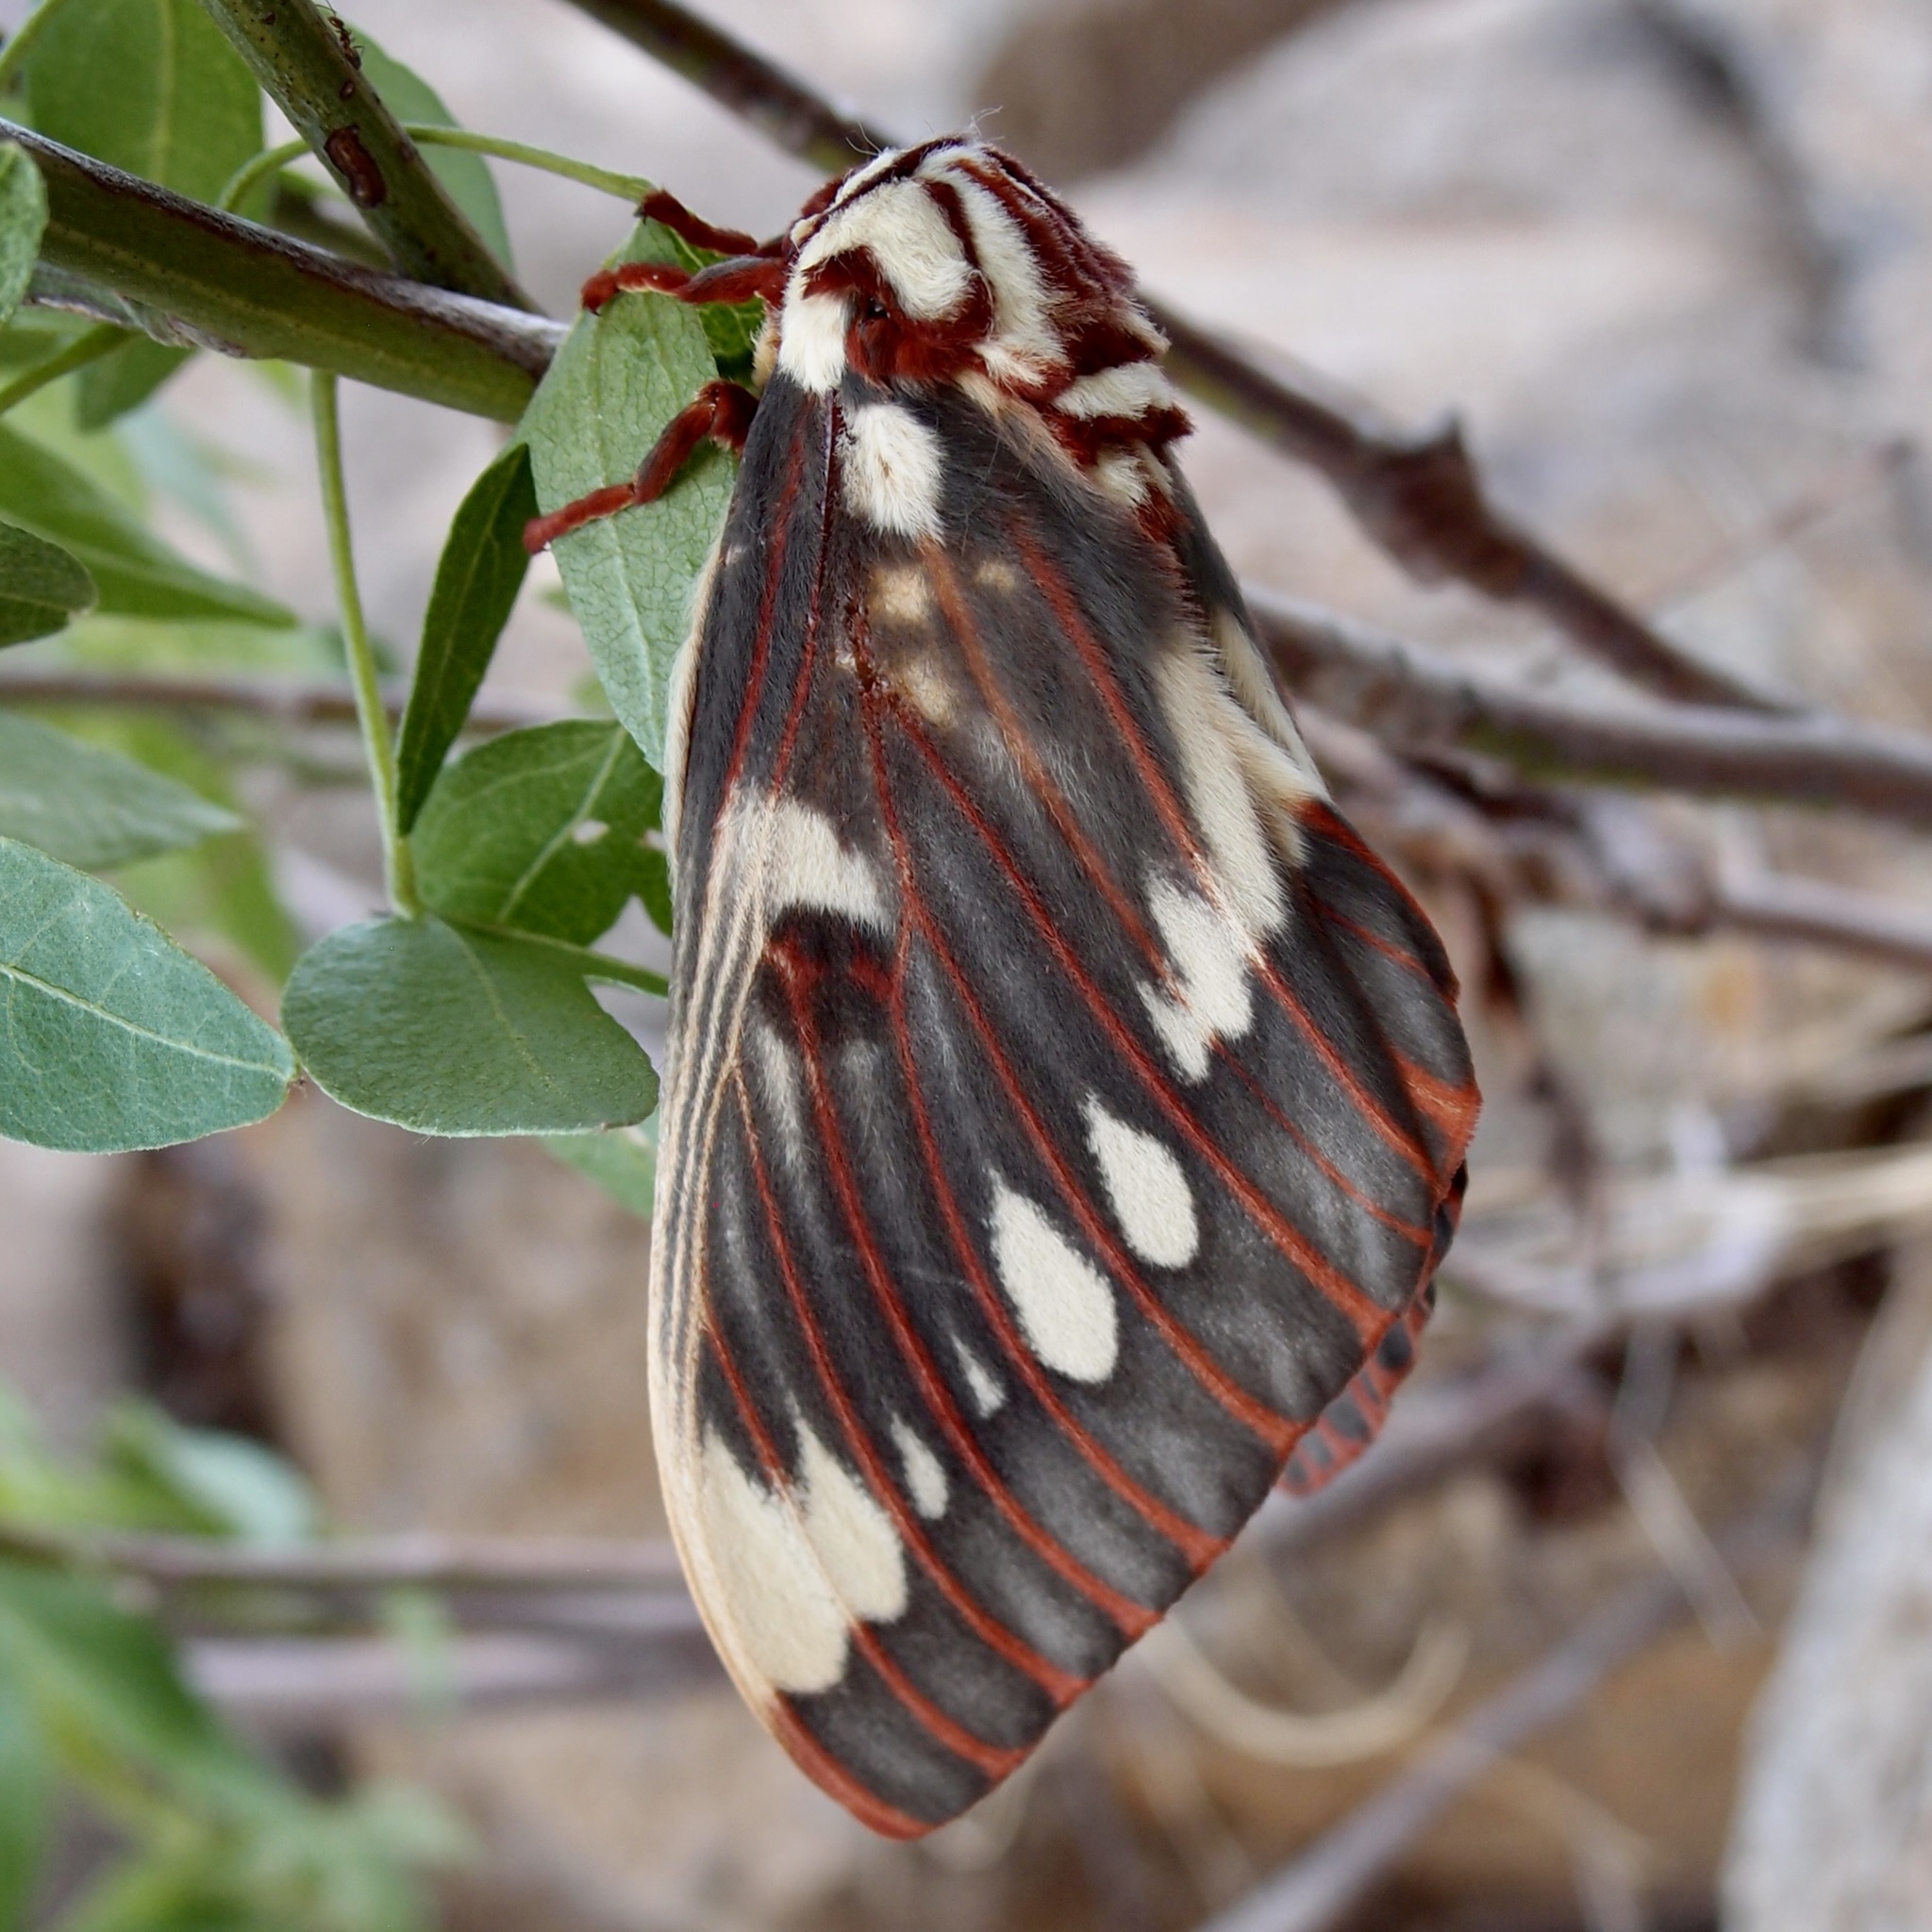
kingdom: Animalia
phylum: Arthropoda
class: Insecta
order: Lepidoptera
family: Saturniidae
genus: Citheronia
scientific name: Citheronia splendens
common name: Splendid royal moth
